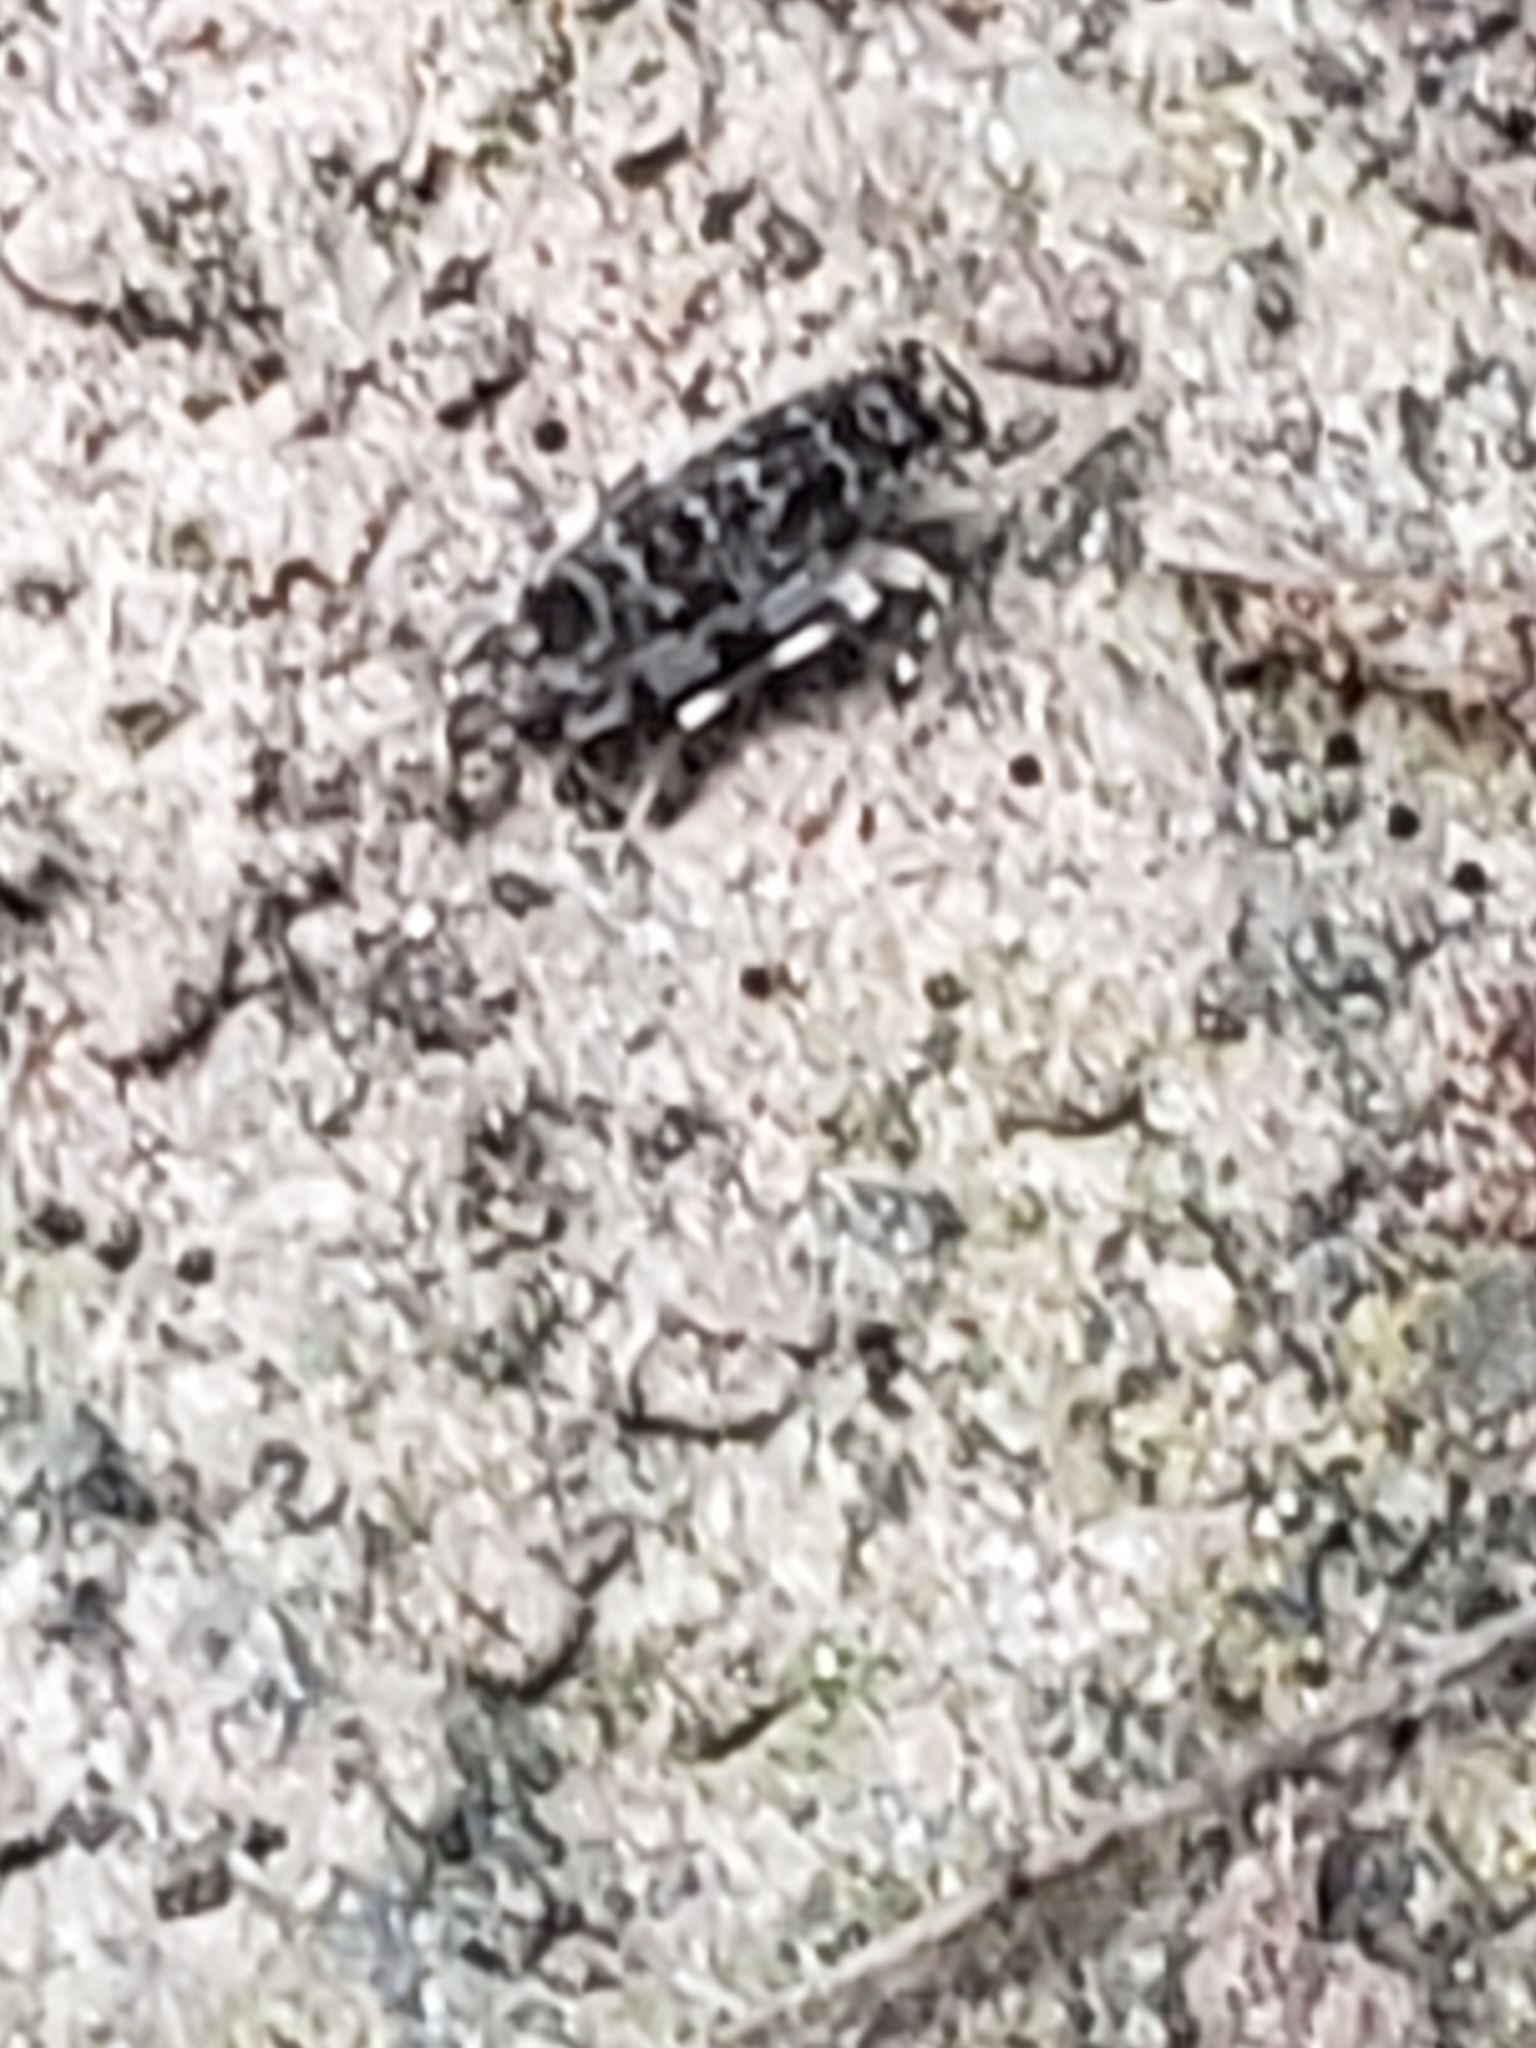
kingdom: Animalia
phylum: Arthropoda
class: Insecta
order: Psocodea
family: Amphientomidae
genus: Stimulopalpus
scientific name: Stimulopalpus japonicus
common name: Tropical bark louse
